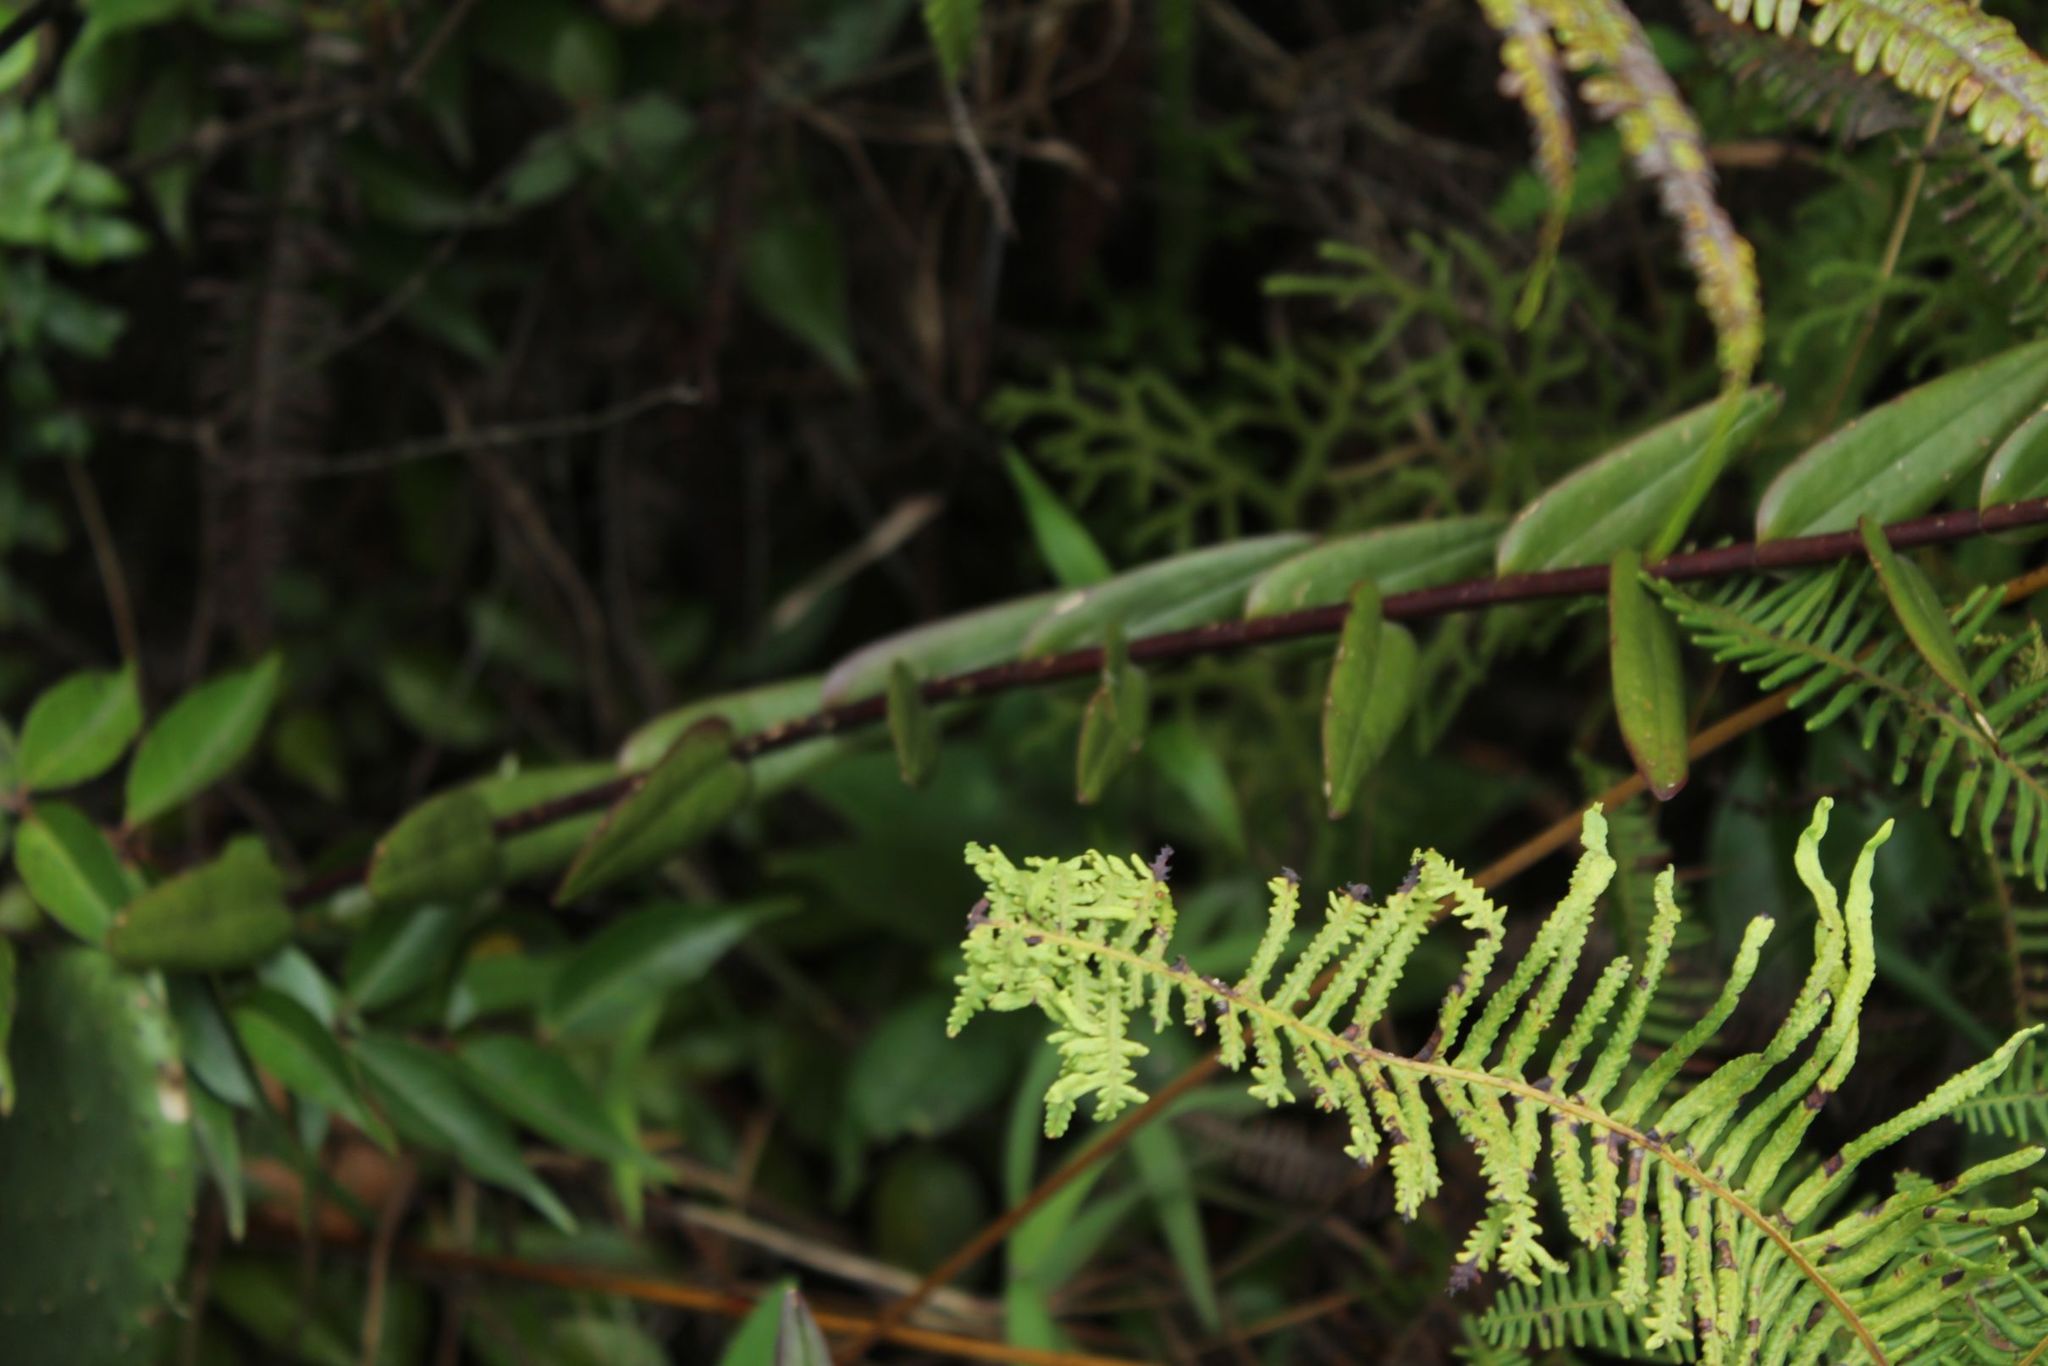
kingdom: Plantae
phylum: Tracheophyta
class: Liliopsida
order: Asparagales
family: Orchidaceae
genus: Epidendrum
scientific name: Epidendrum aura-usecheae
